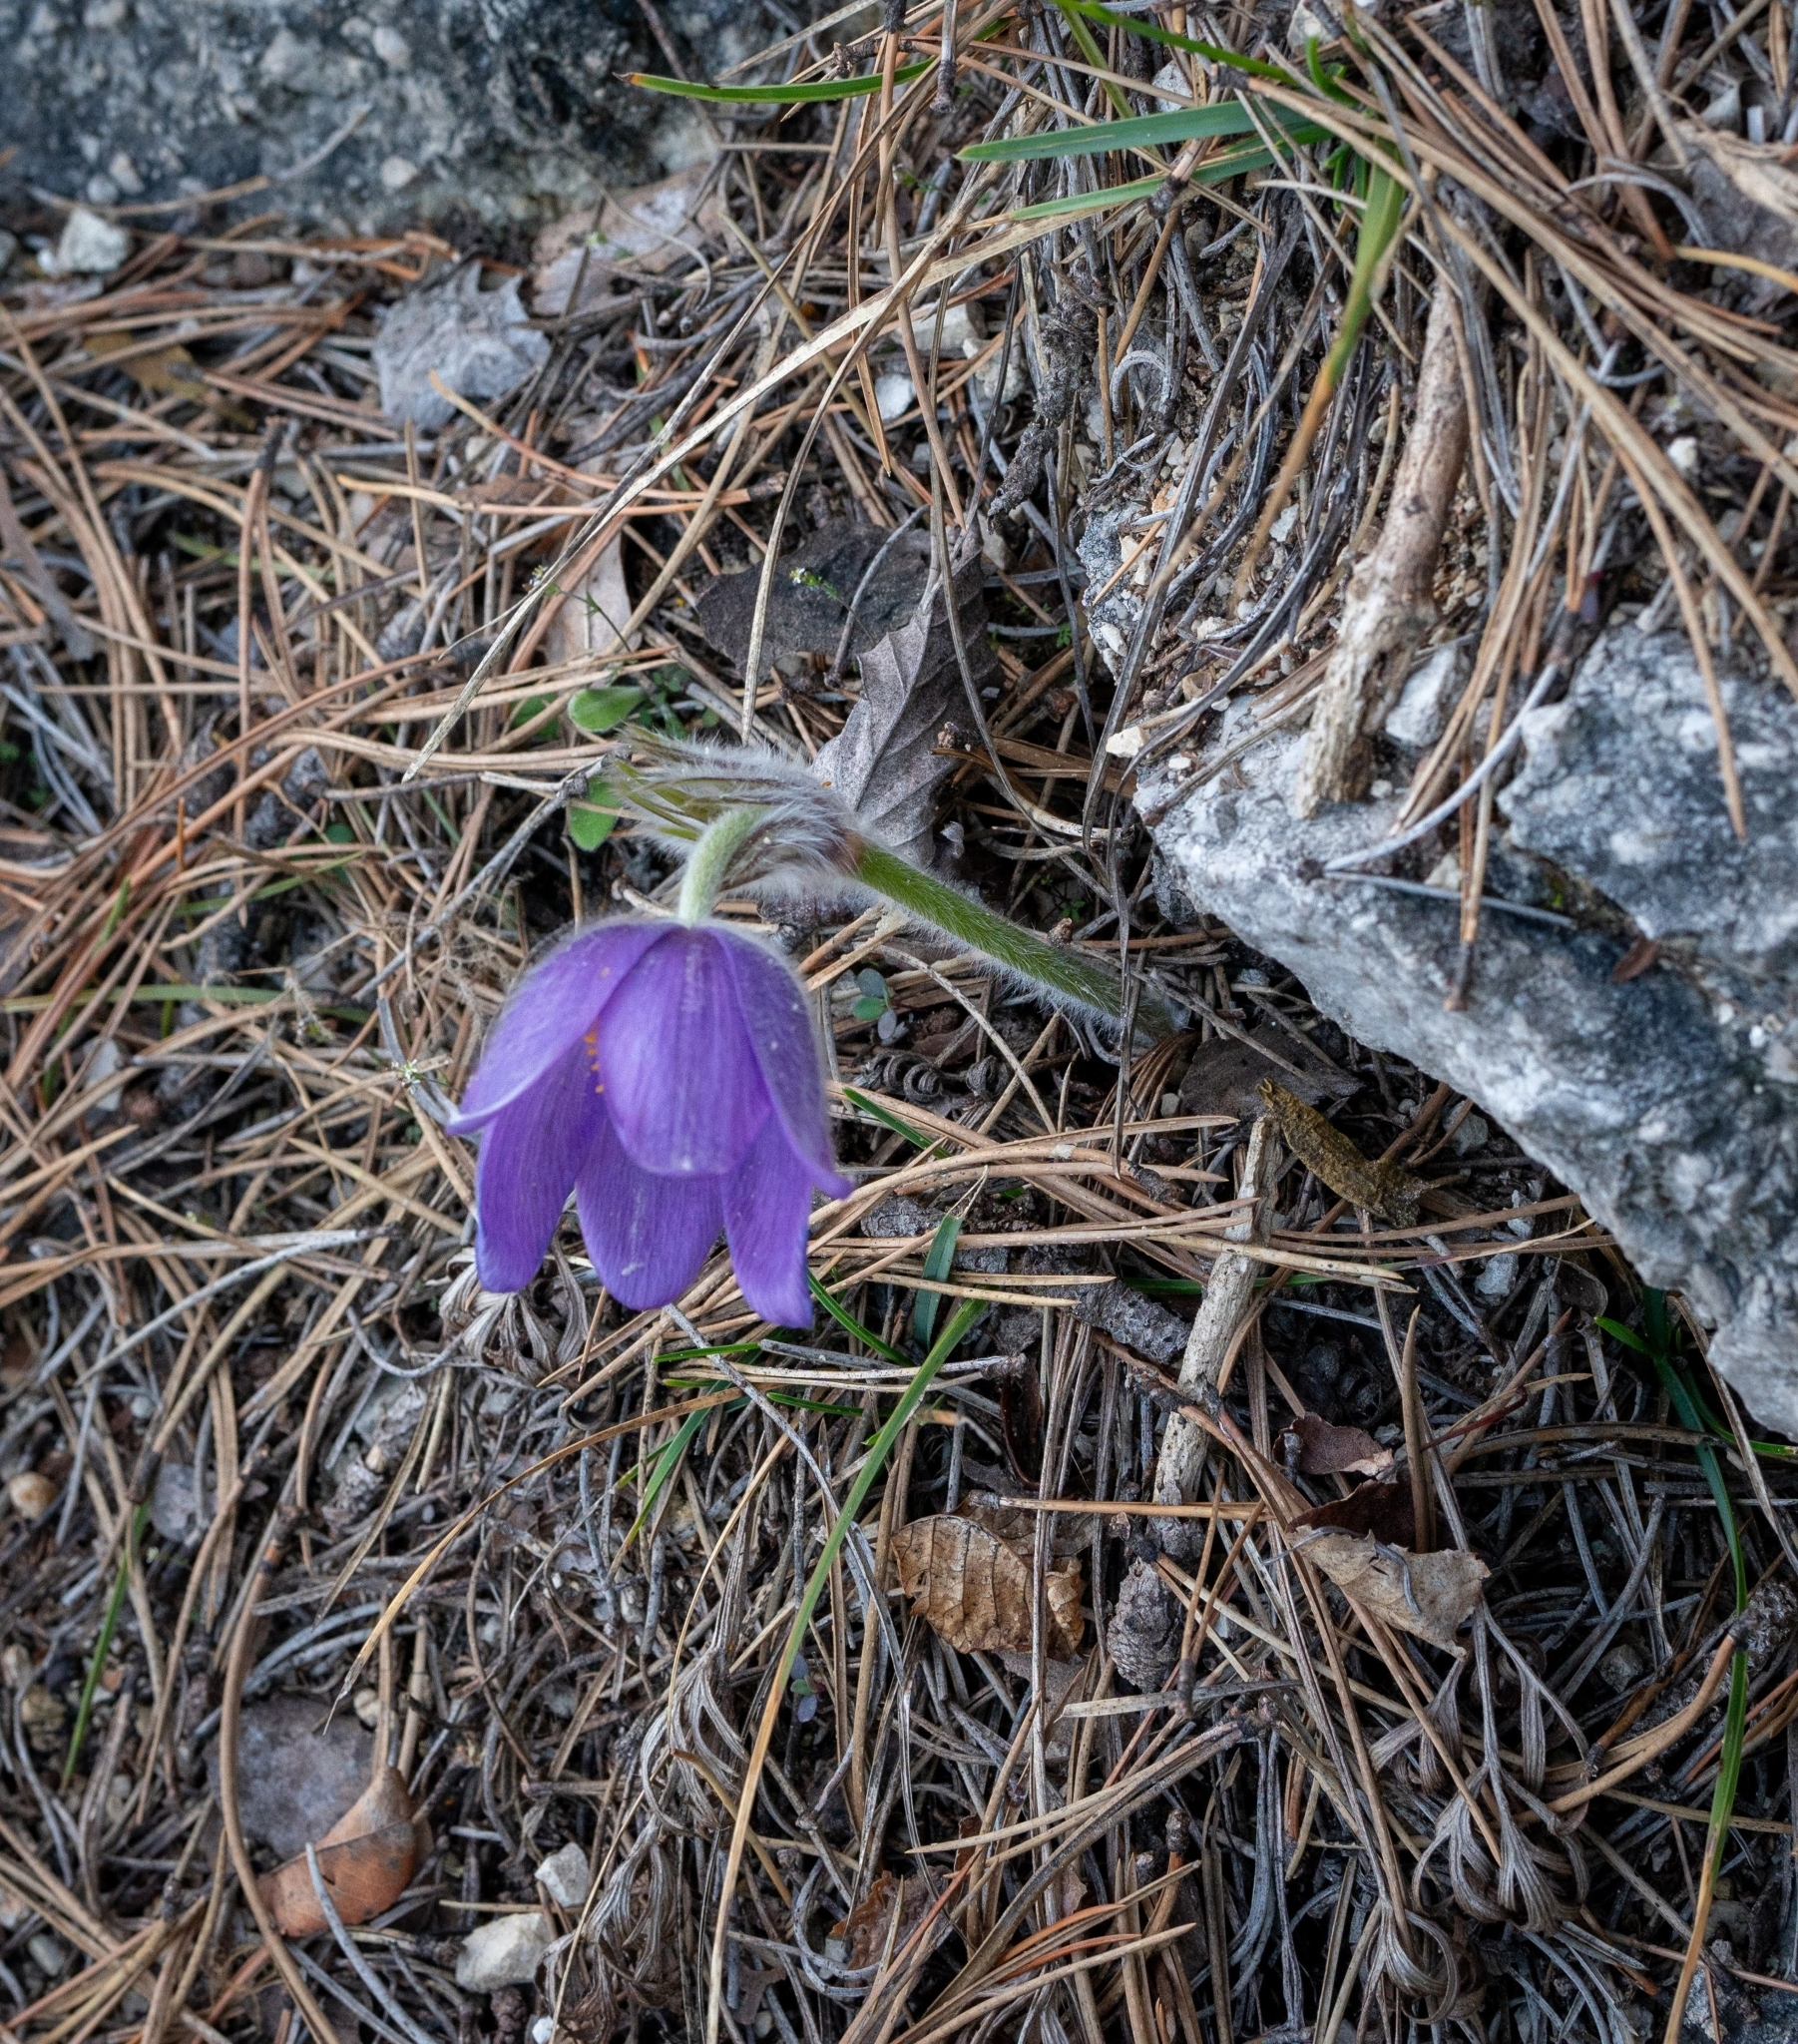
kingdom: Plantae
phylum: Tracheophyta
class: Magnoliopsida
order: Ranunculales
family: Ranunculaceae
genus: Pulsatilla
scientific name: Pulsatilla grandis
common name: Greater pasque flower
